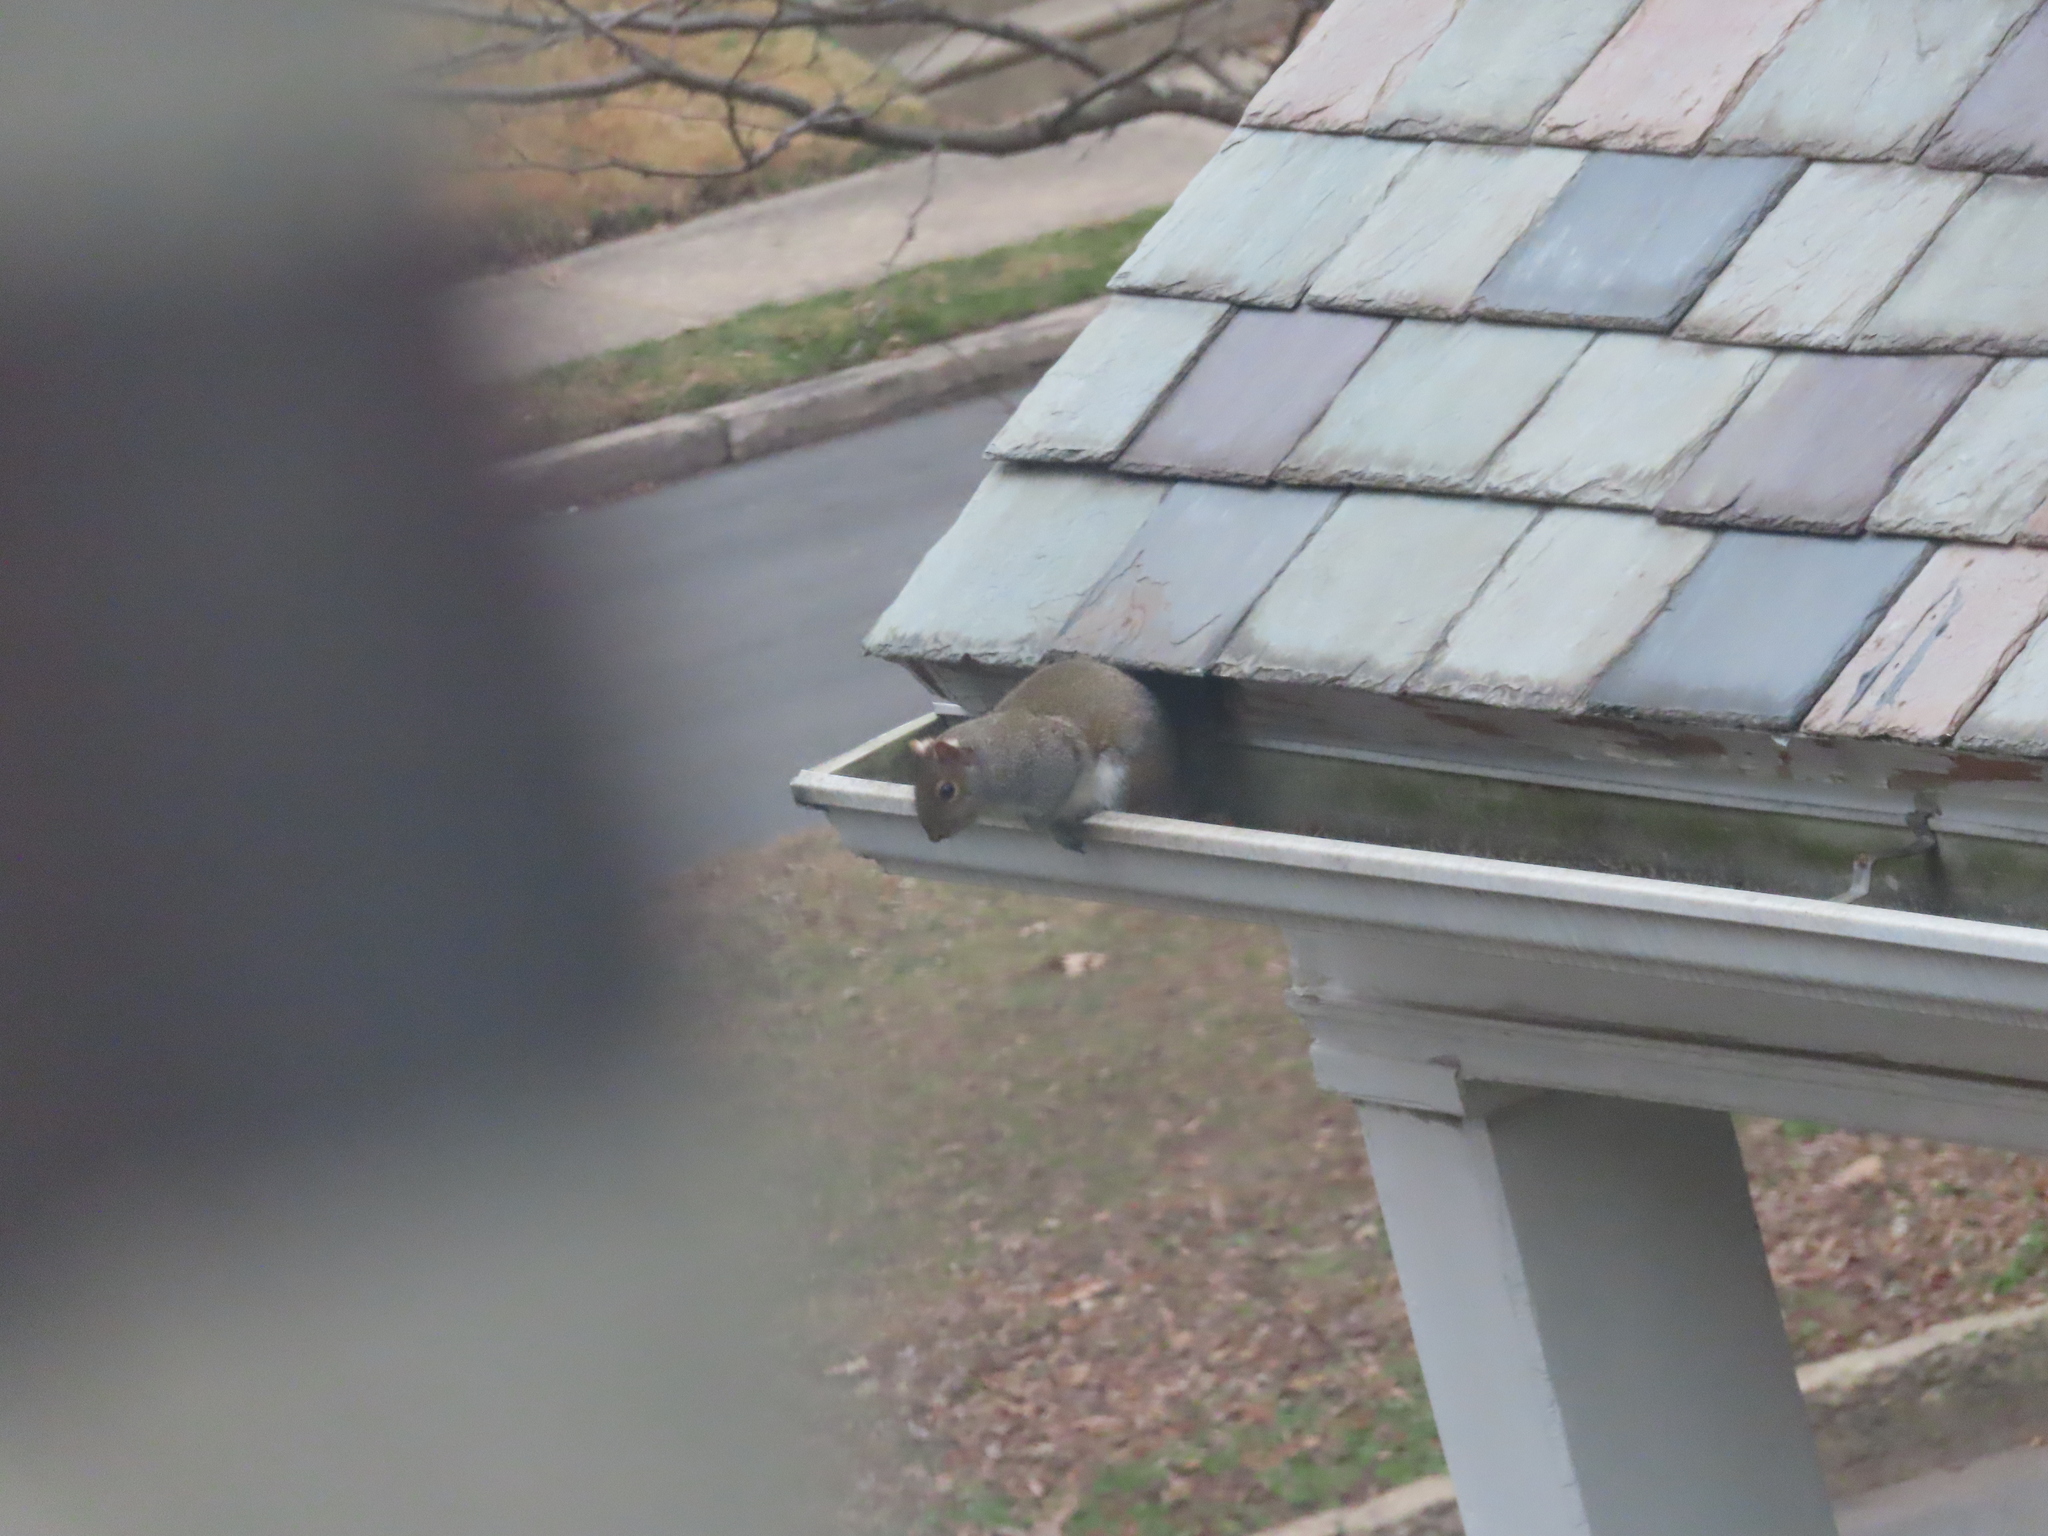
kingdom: Animalia
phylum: Chordata
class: Mammalia
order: Rodentia
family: Sciuridae
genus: Sciurus
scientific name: Sciurus carolinensis
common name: Eastern gray squirrel
